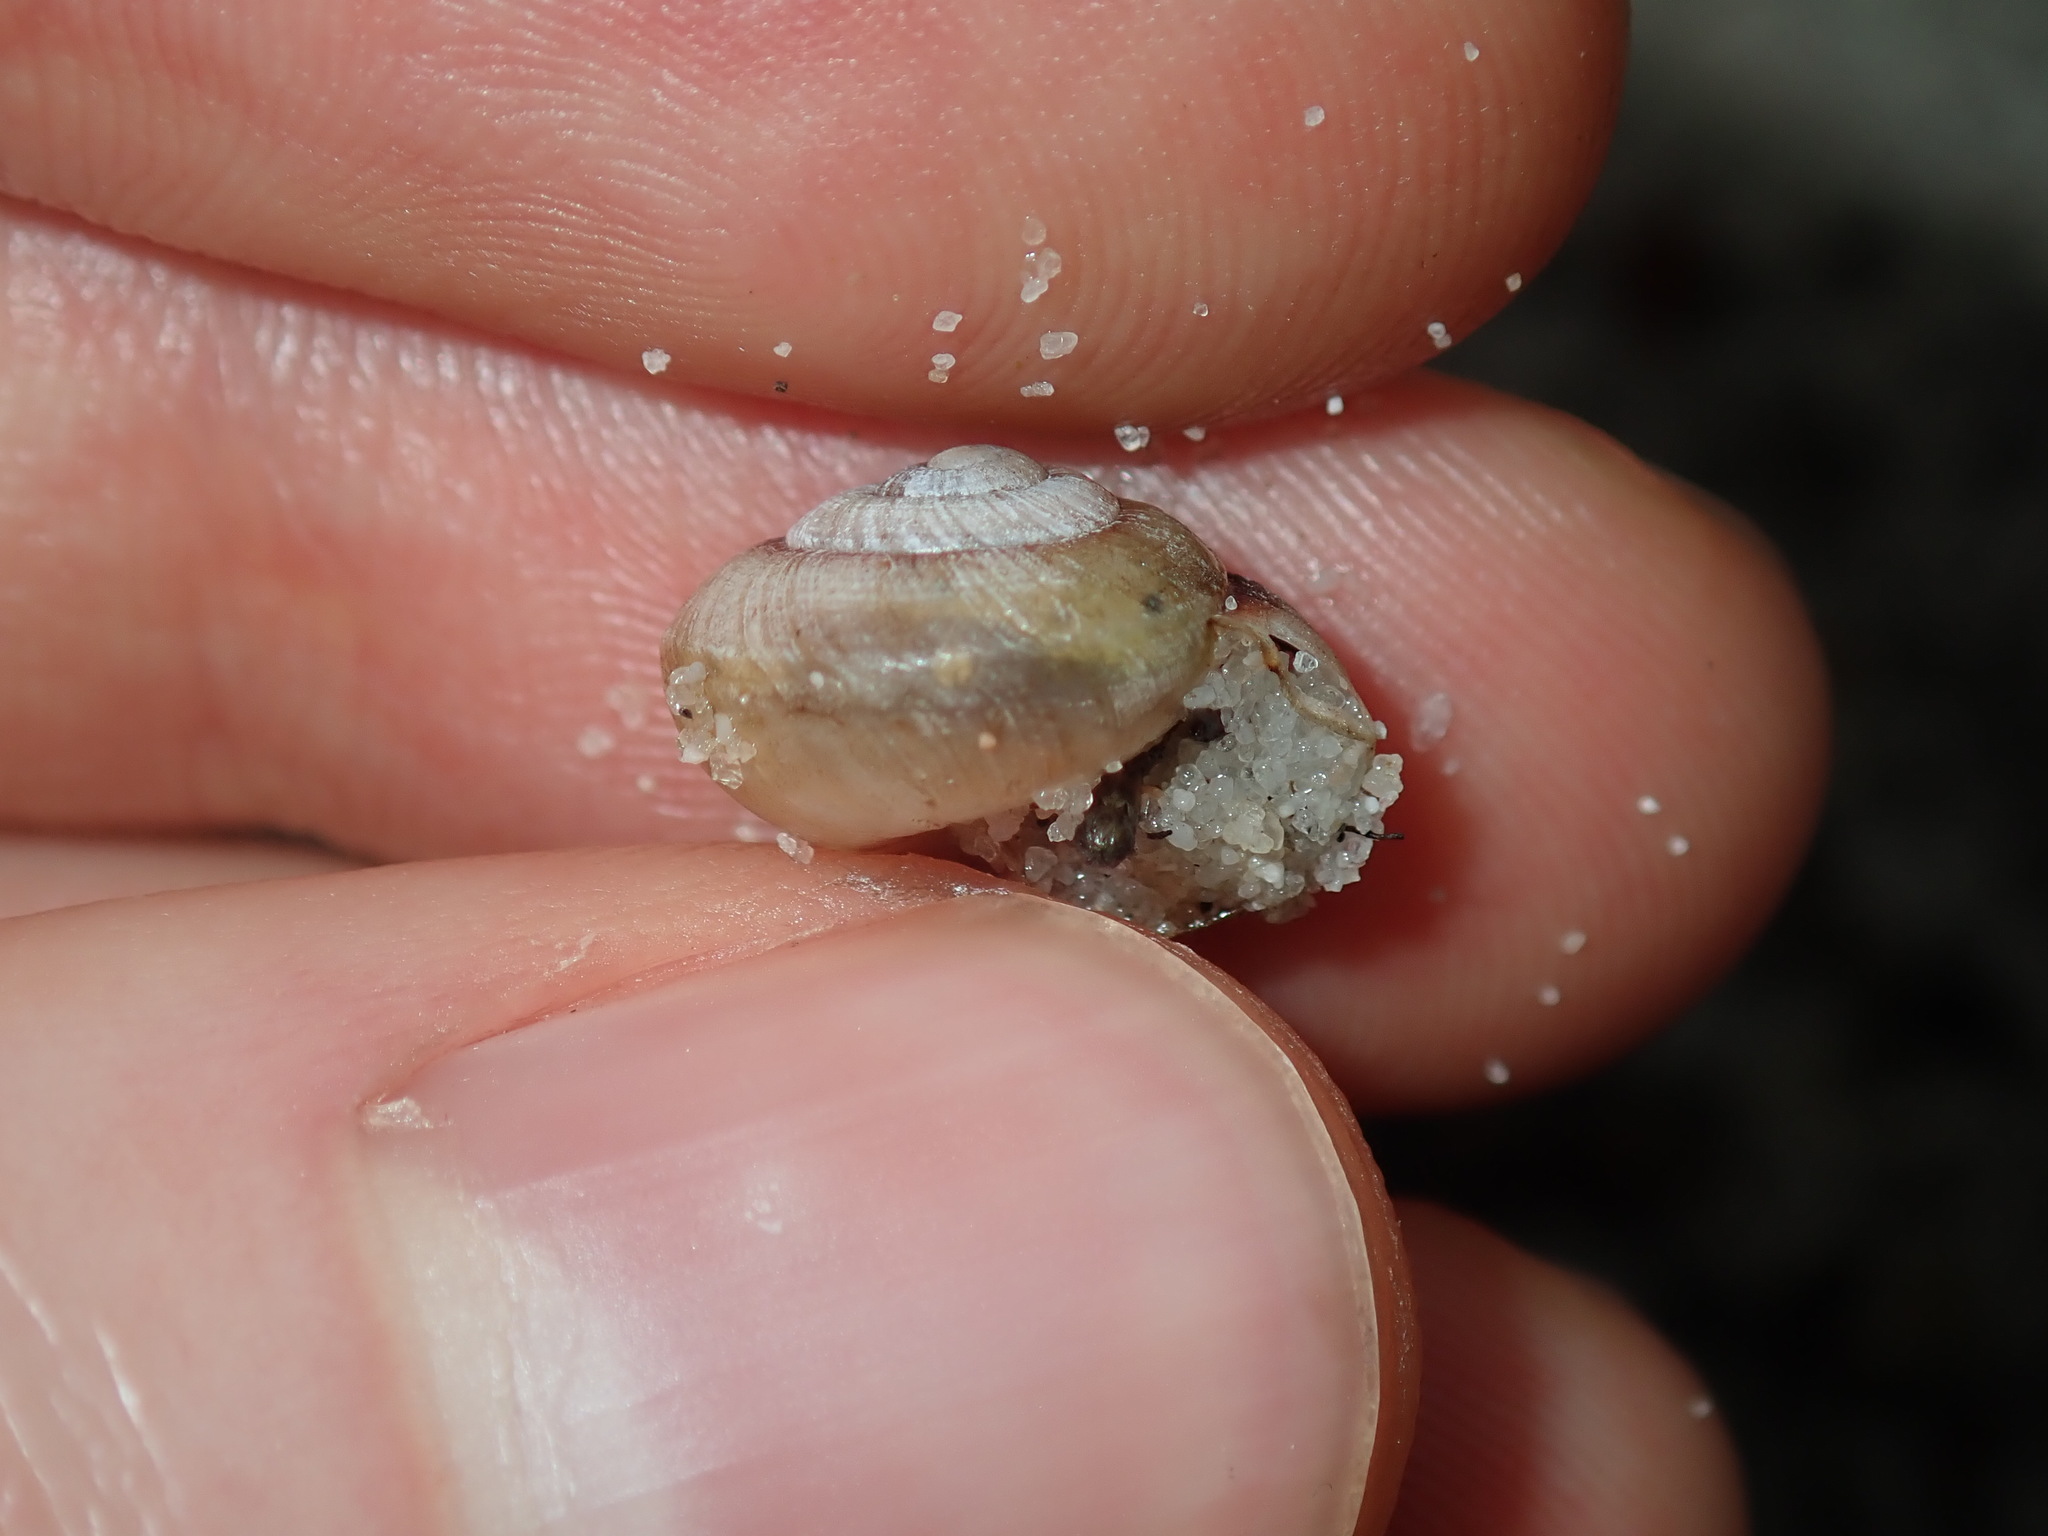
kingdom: Animalia
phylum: Mollusca
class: Gastropoda
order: Stylommatophora
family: Camaenidae
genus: Galadistes
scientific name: Galadistes akubra
